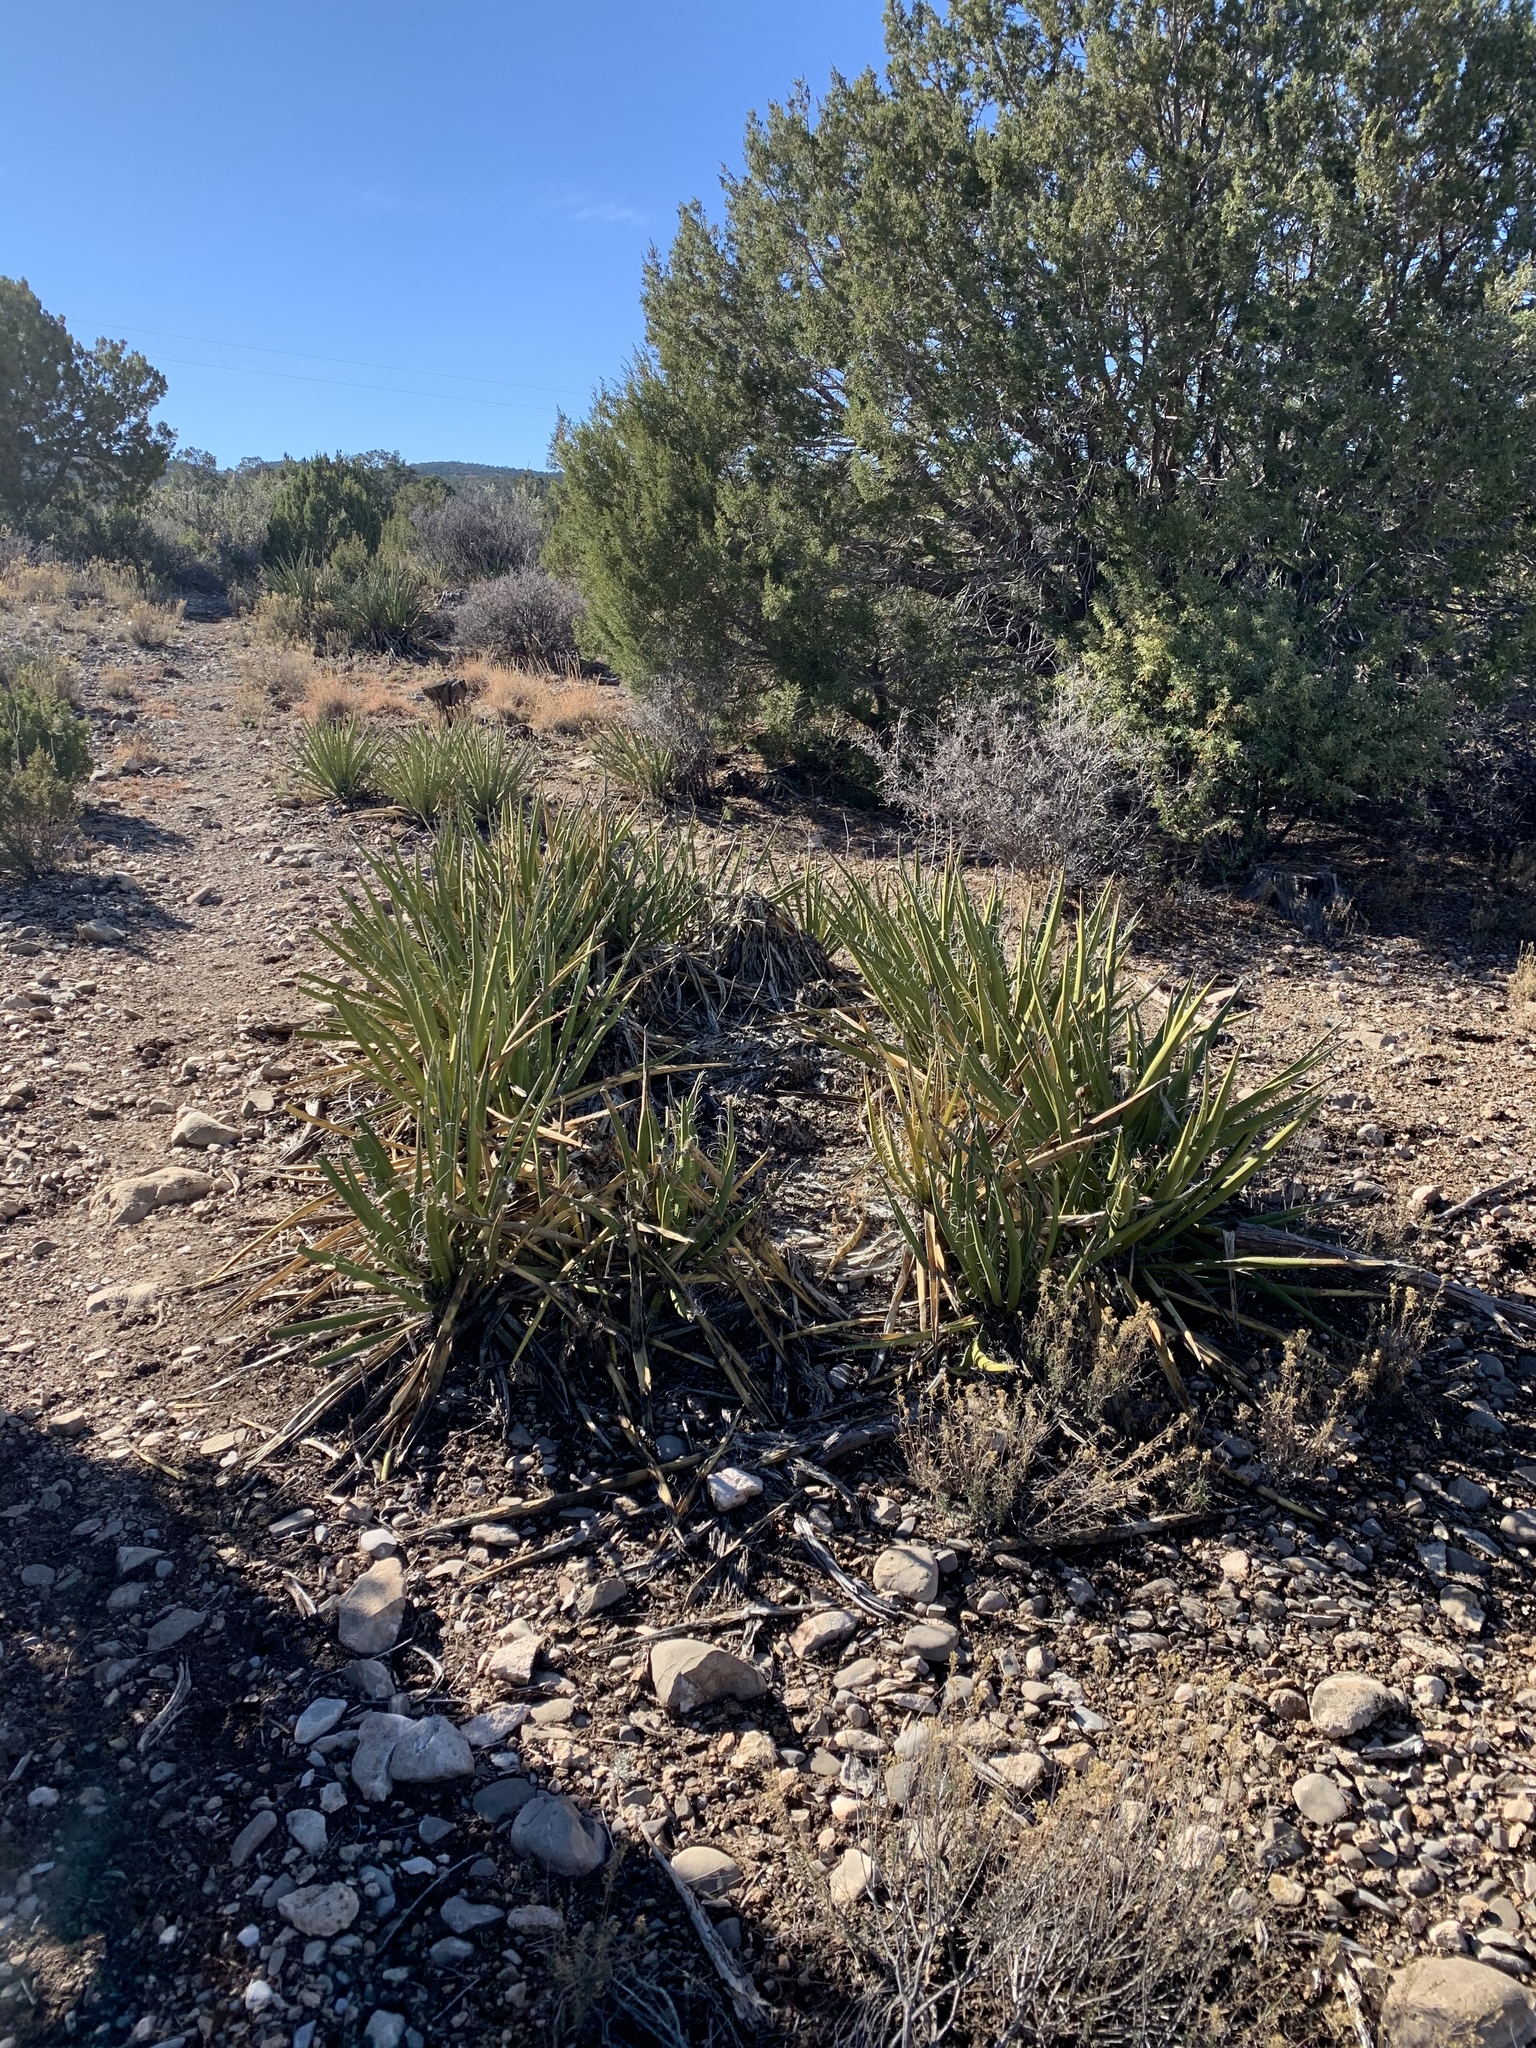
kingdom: Plantae
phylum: Tracheophyta
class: Liliopsida
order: Asparagales
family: Asparagaceae
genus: Yucca
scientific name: Yucca baccata
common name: Banana yucca
